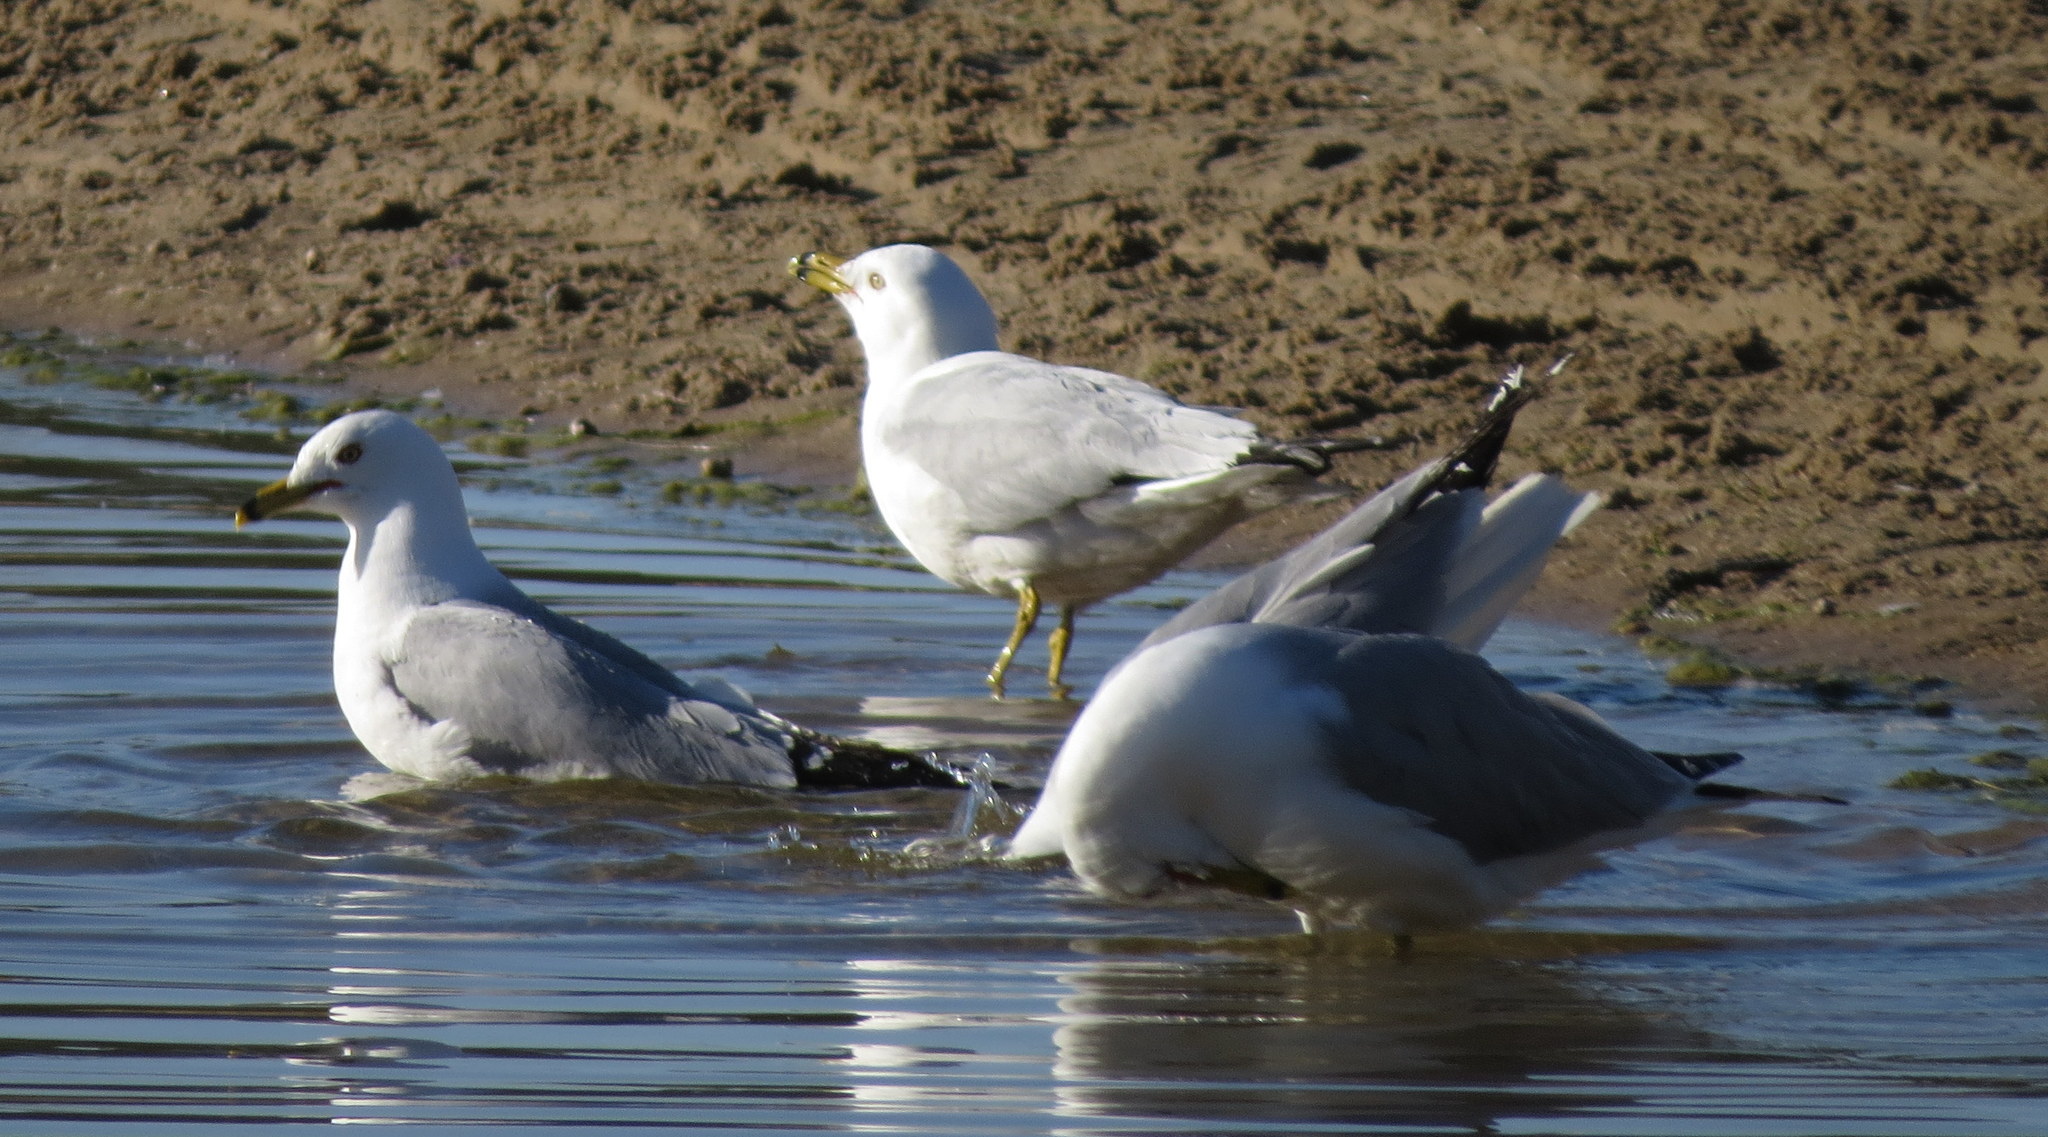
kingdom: Animalia
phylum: Chordata
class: Aves
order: Charadriiformes
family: Laridae
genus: Larus
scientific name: Larus delawarensis
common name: Ring-billed gull
